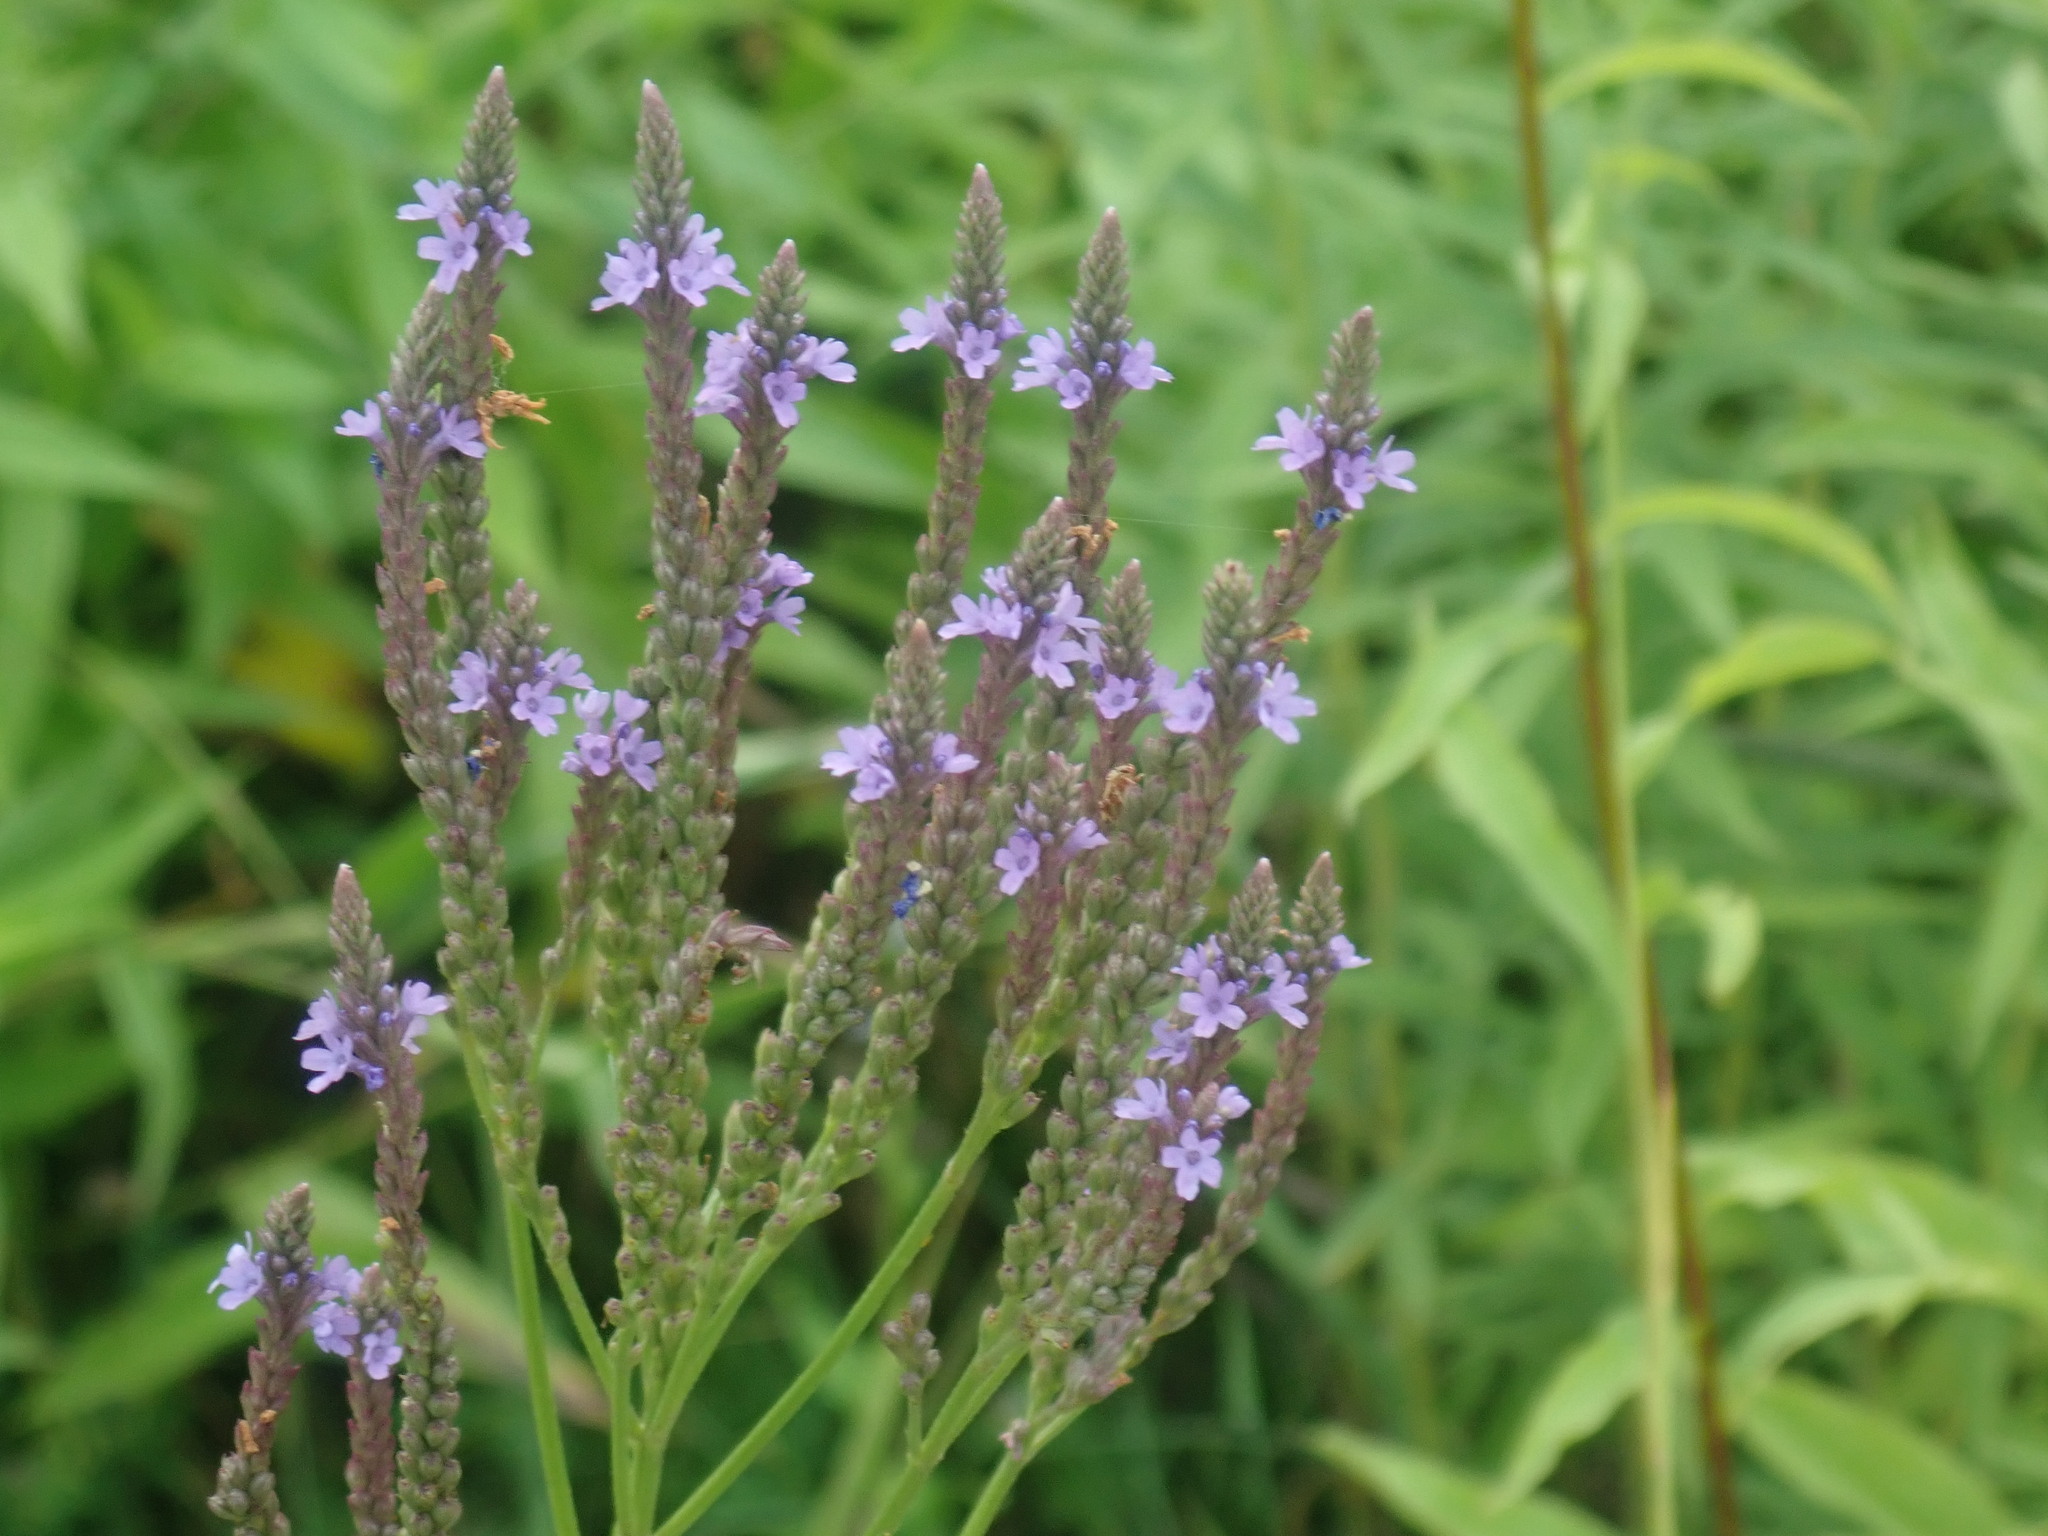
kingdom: Plantae
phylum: Tracheophyta
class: Magnoliopsida
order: Lamiales
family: Verbenaceae
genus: Verbena
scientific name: Verbena hastata
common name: American blue vervain
